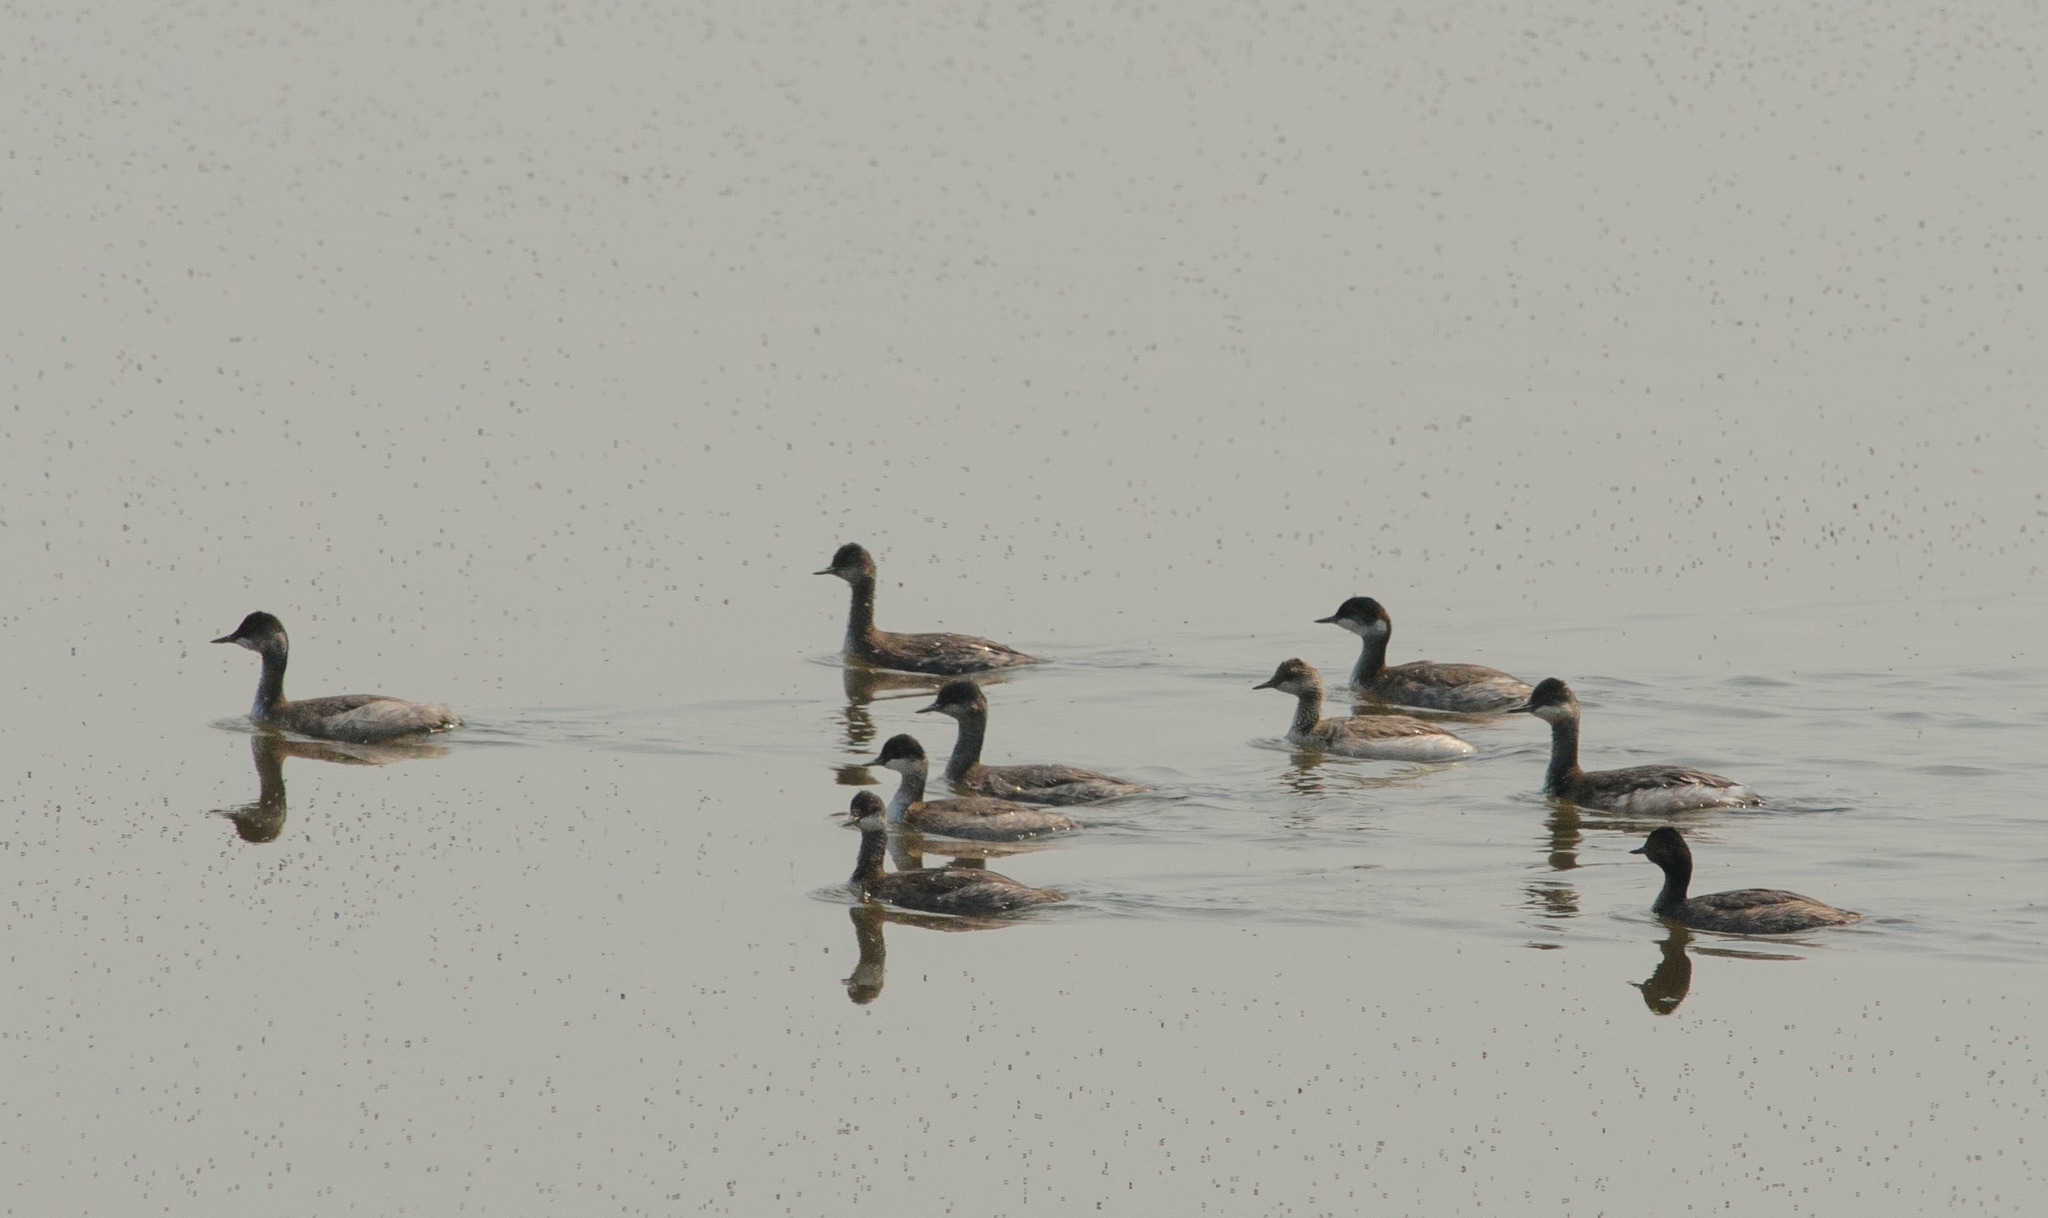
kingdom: Animalia
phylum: Chordata
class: Aves
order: Podicipediformes
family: Podicipedidae
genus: Podiceps
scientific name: Podiceps nigricollis
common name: Black-necked grebe
